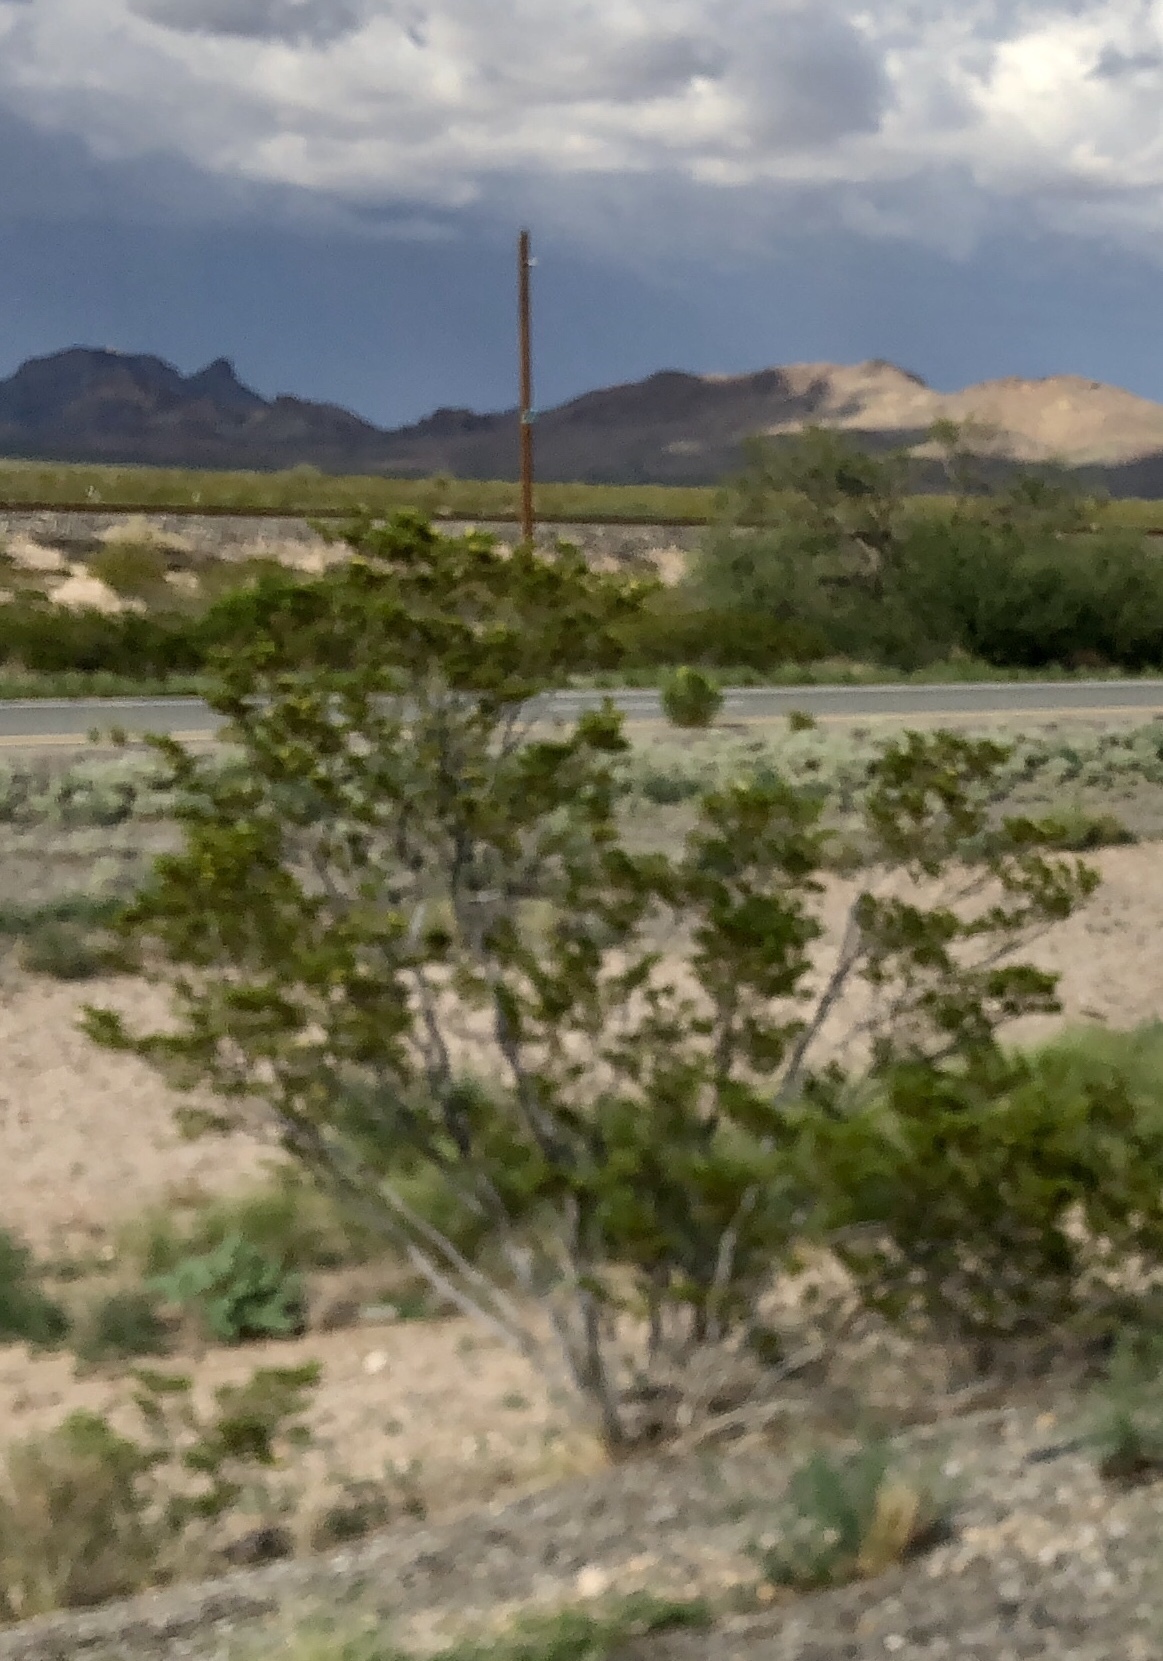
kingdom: Plantae
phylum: Tracheophyta
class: Magnoliopsida
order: Zygophyllales
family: Zygophyllaceae
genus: Larrea
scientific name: Larrea tridentata
